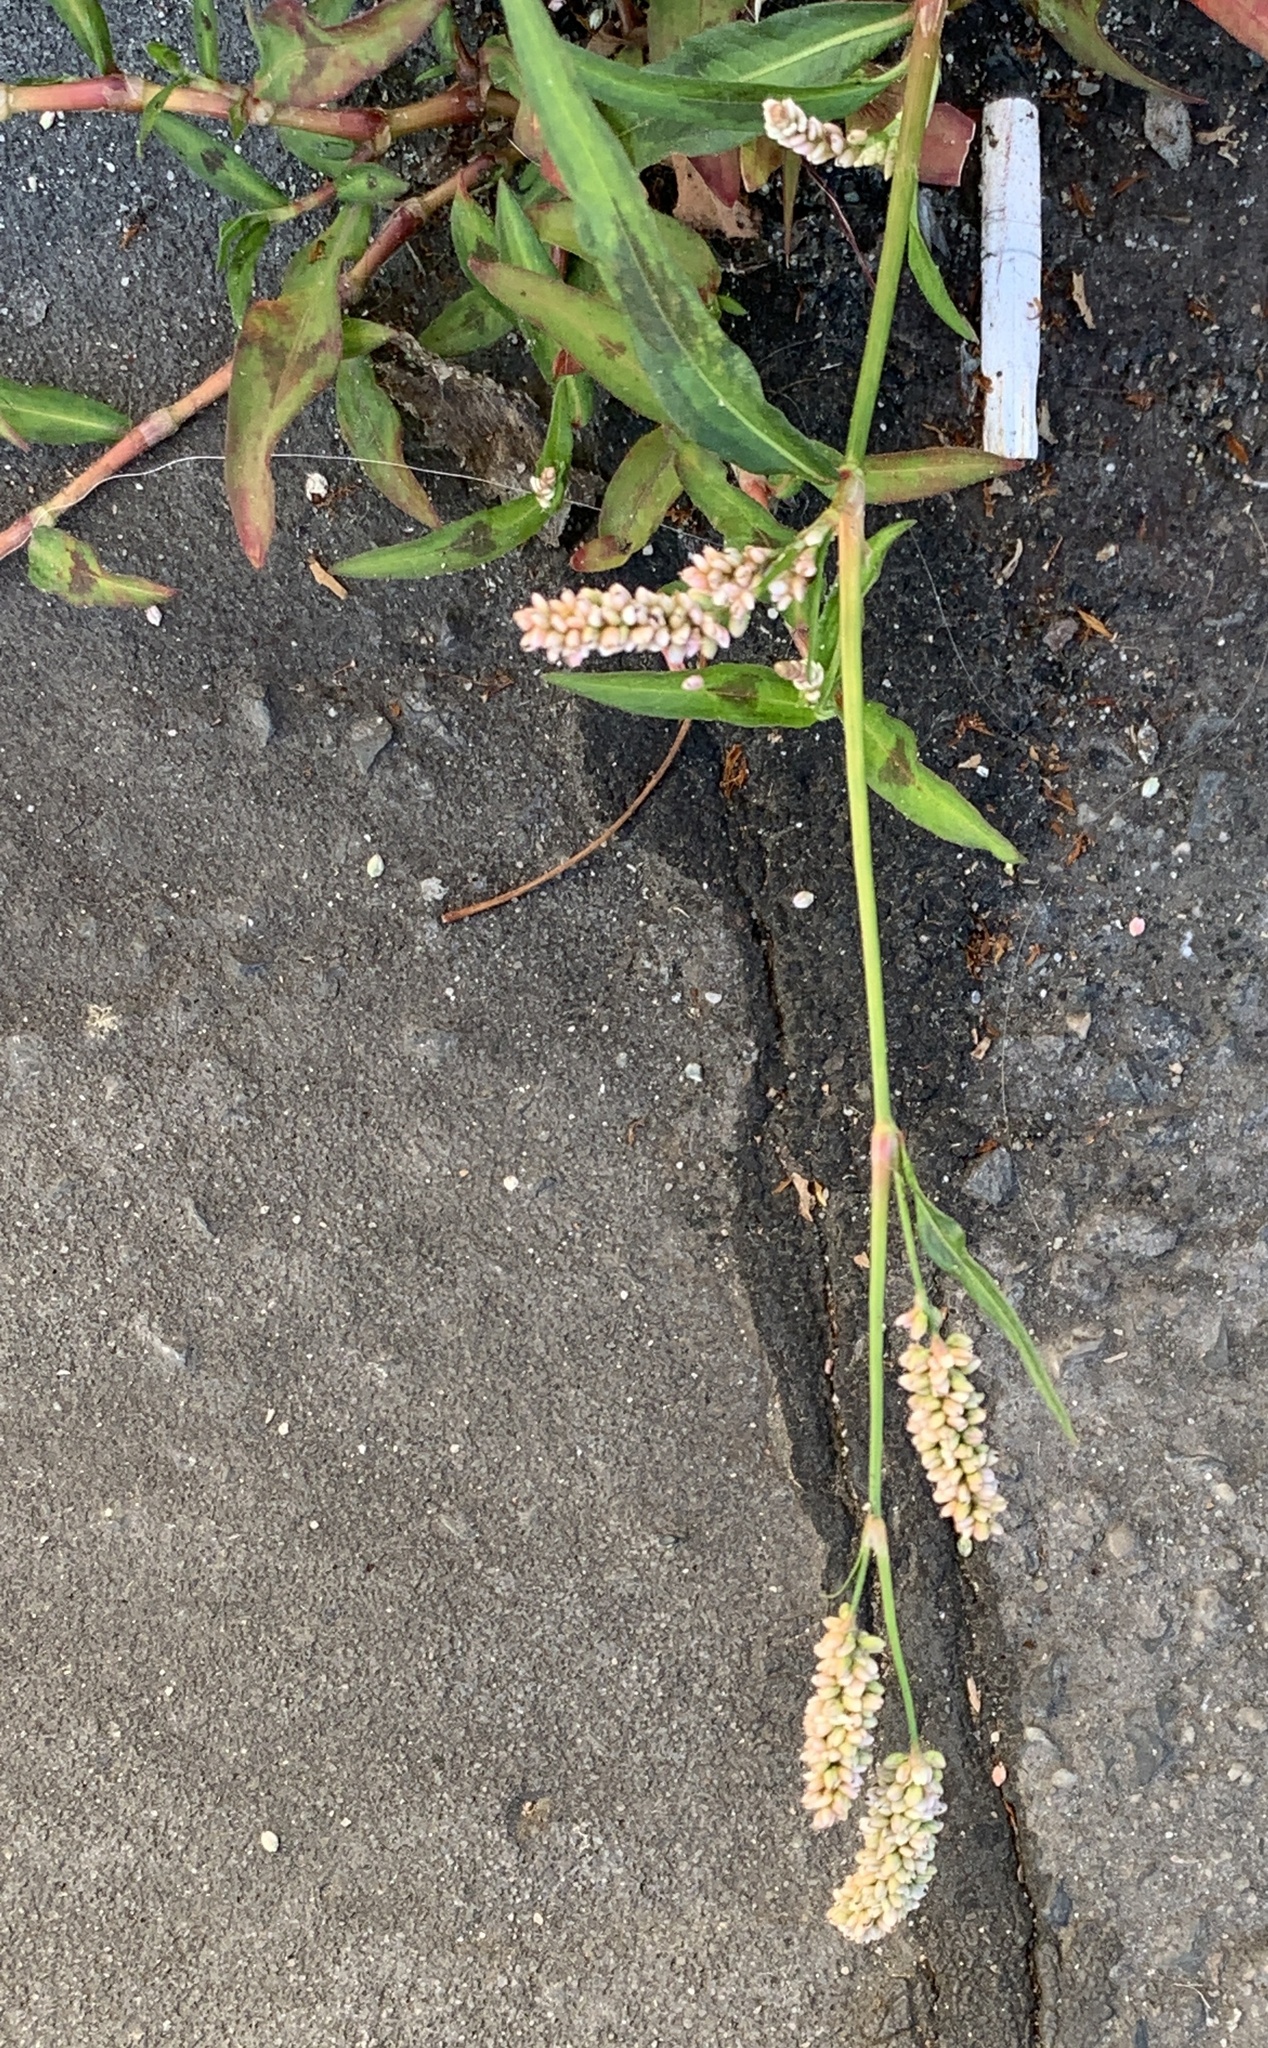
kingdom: Plantae
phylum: Tracheophyta
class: Magnoliopsida
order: Caryophyllales
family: Polygonaceae
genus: Persicaria
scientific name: Persicaria lapathifolia
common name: Curlytop knotweed
